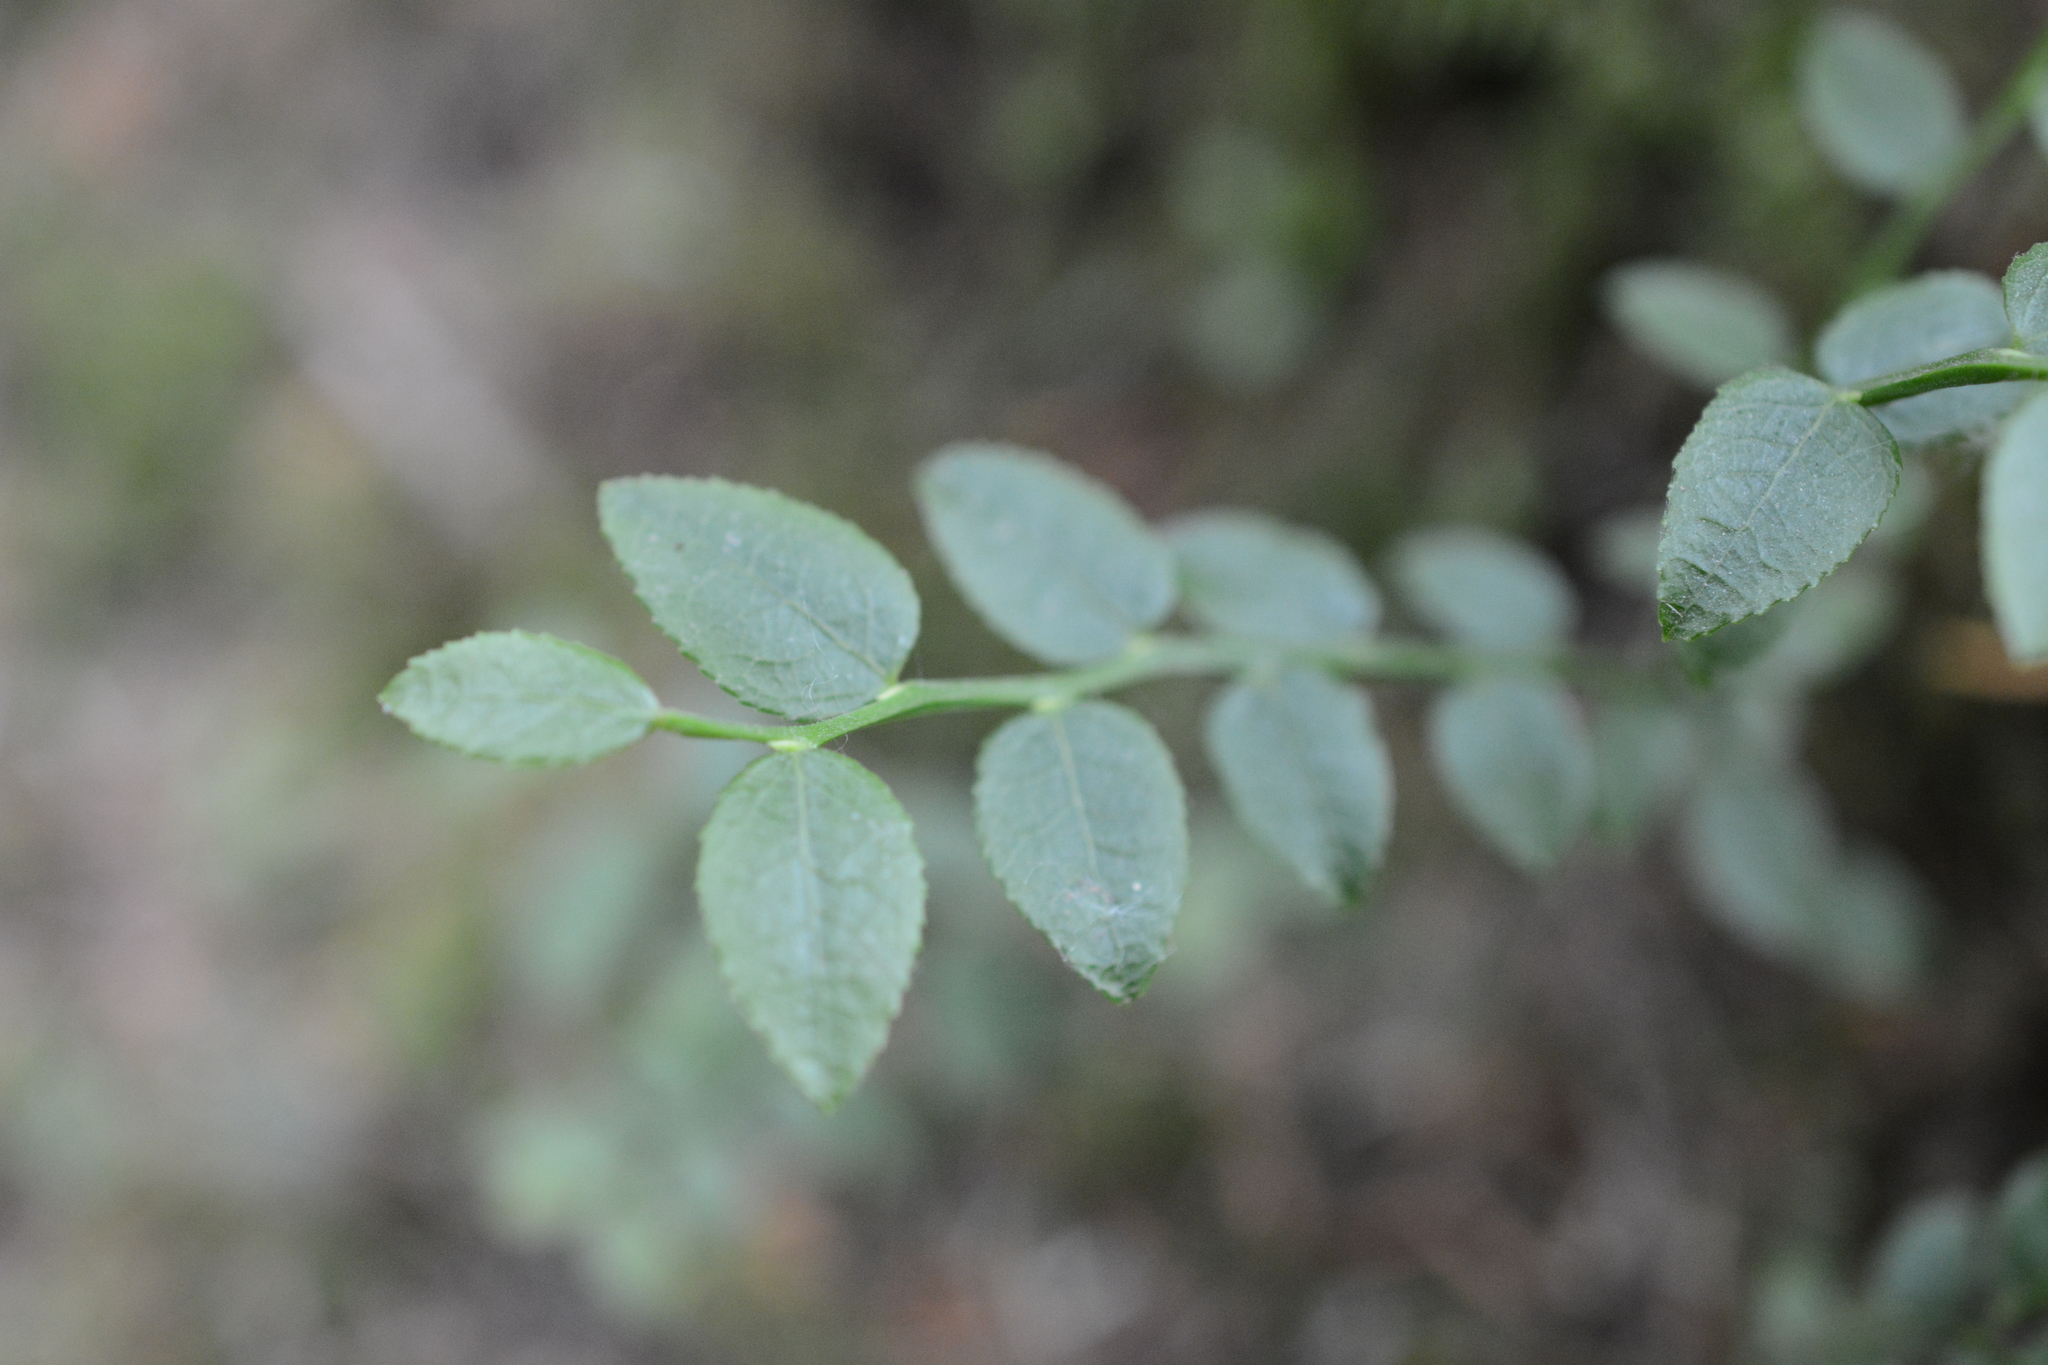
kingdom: Plantae
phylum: Tracheophyta
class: Magnoliopsida
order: Ericales
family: Ericaceae
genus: Vaccinium
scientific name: Vaccinium parvifolium
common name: Red-huckleberry
